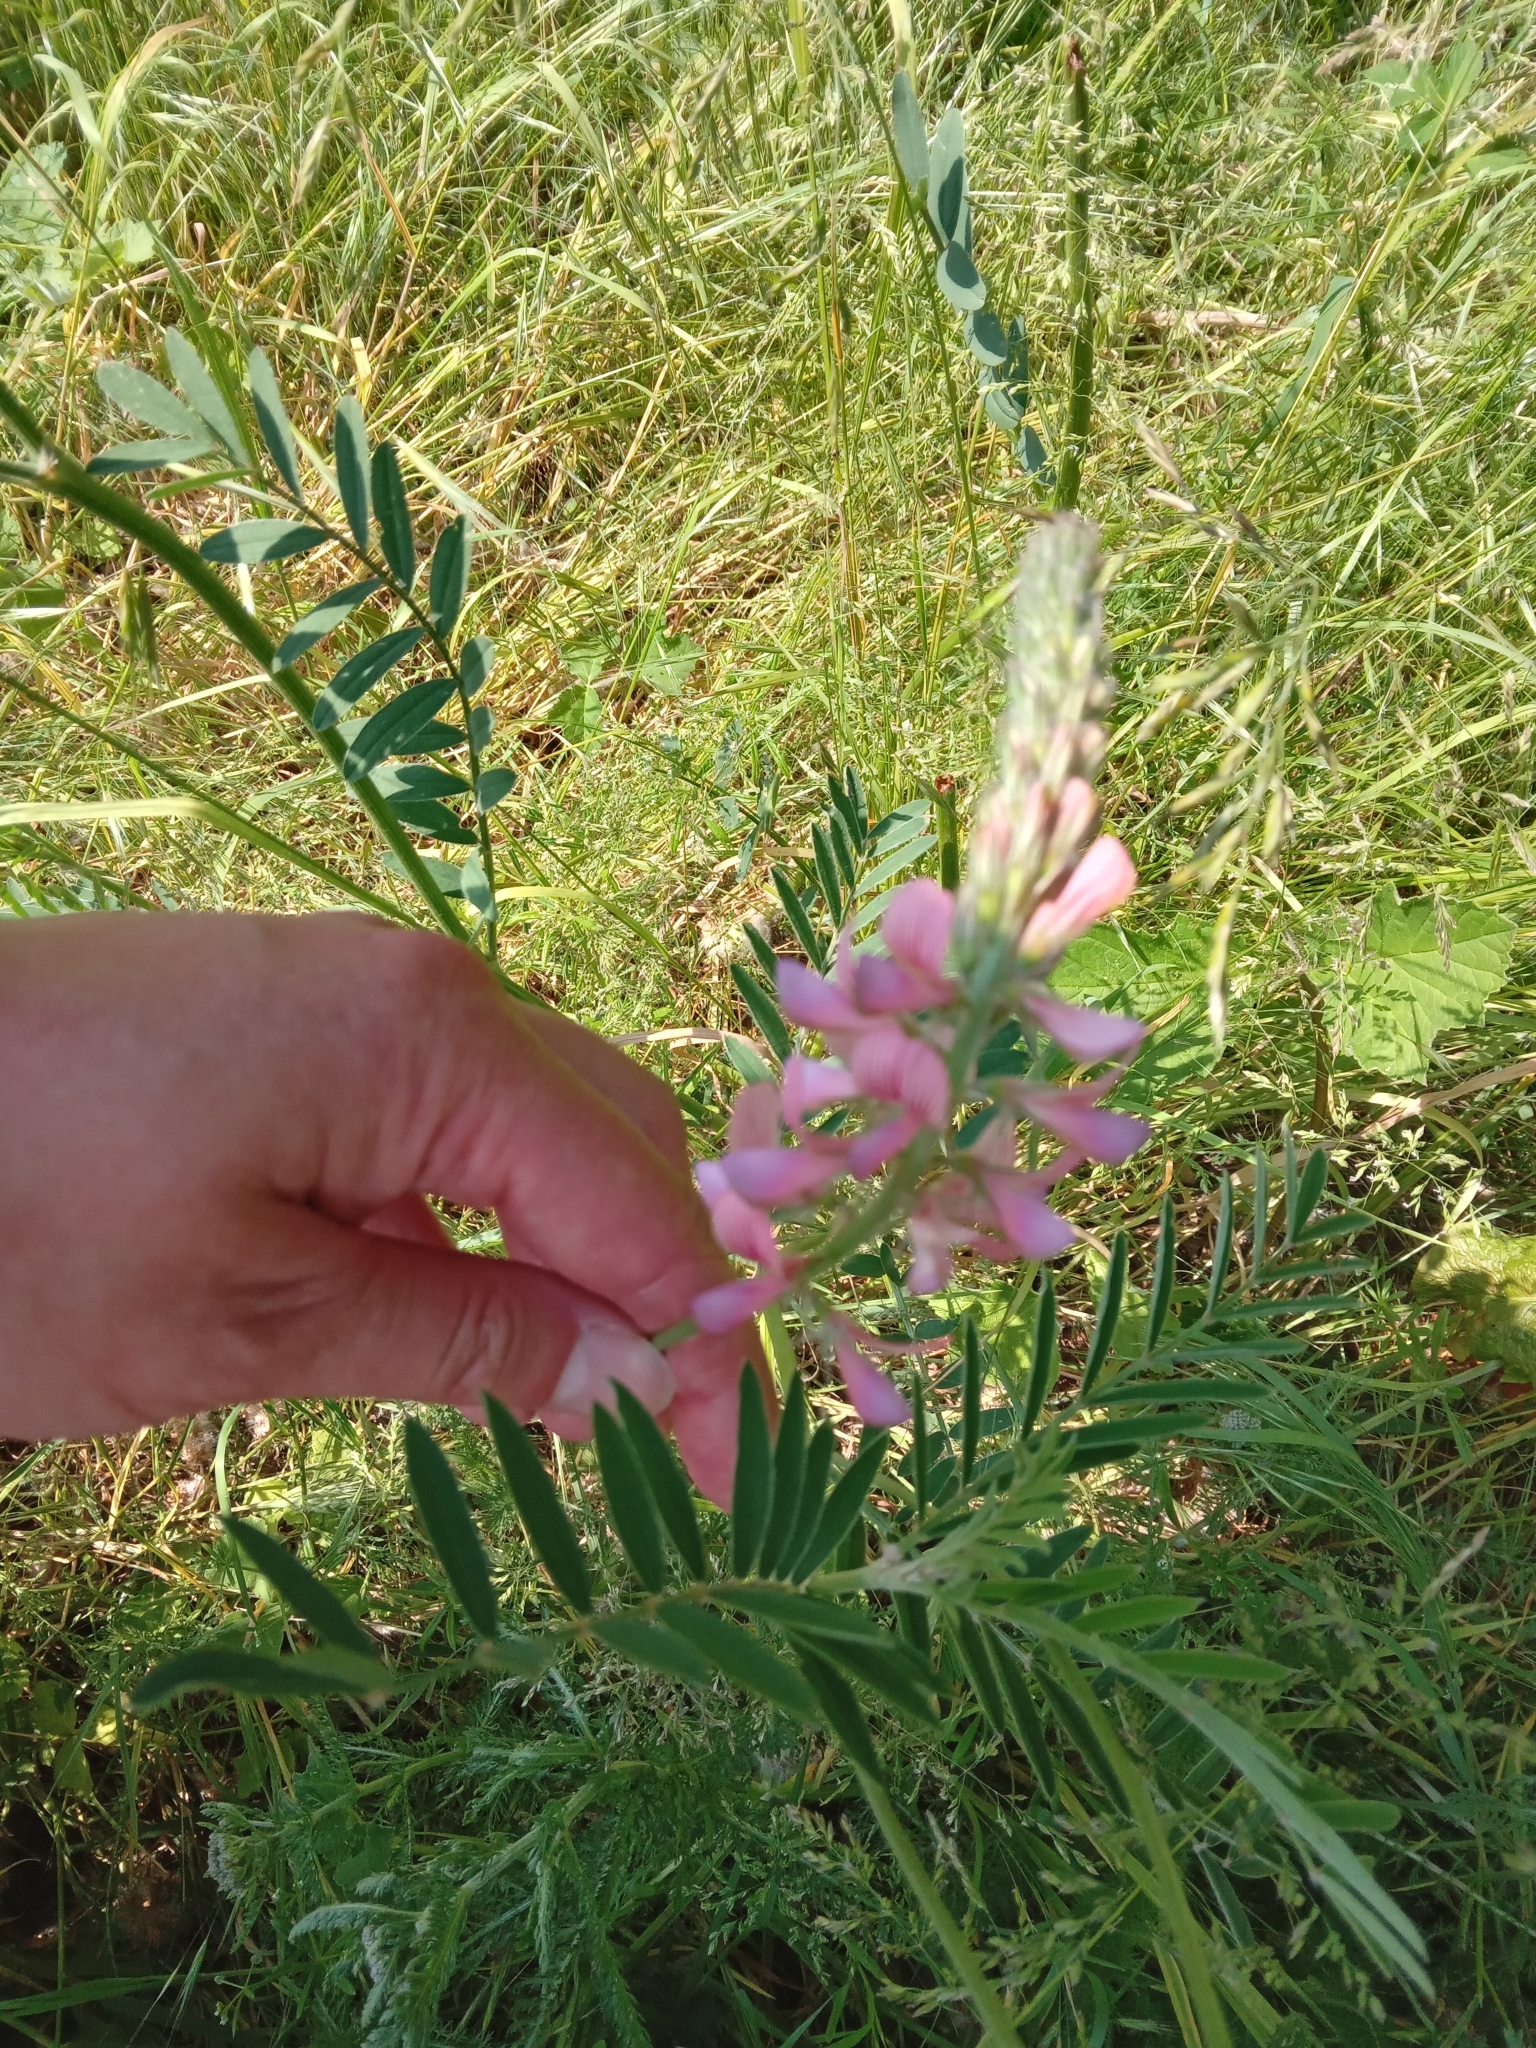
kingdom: Plantae
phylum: Tracheophyta
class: Magnoliopsida
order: Fabales
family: Fabaceae
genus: Onobrychis
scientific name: Onobrychis viciifolia
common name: Sainfoin
